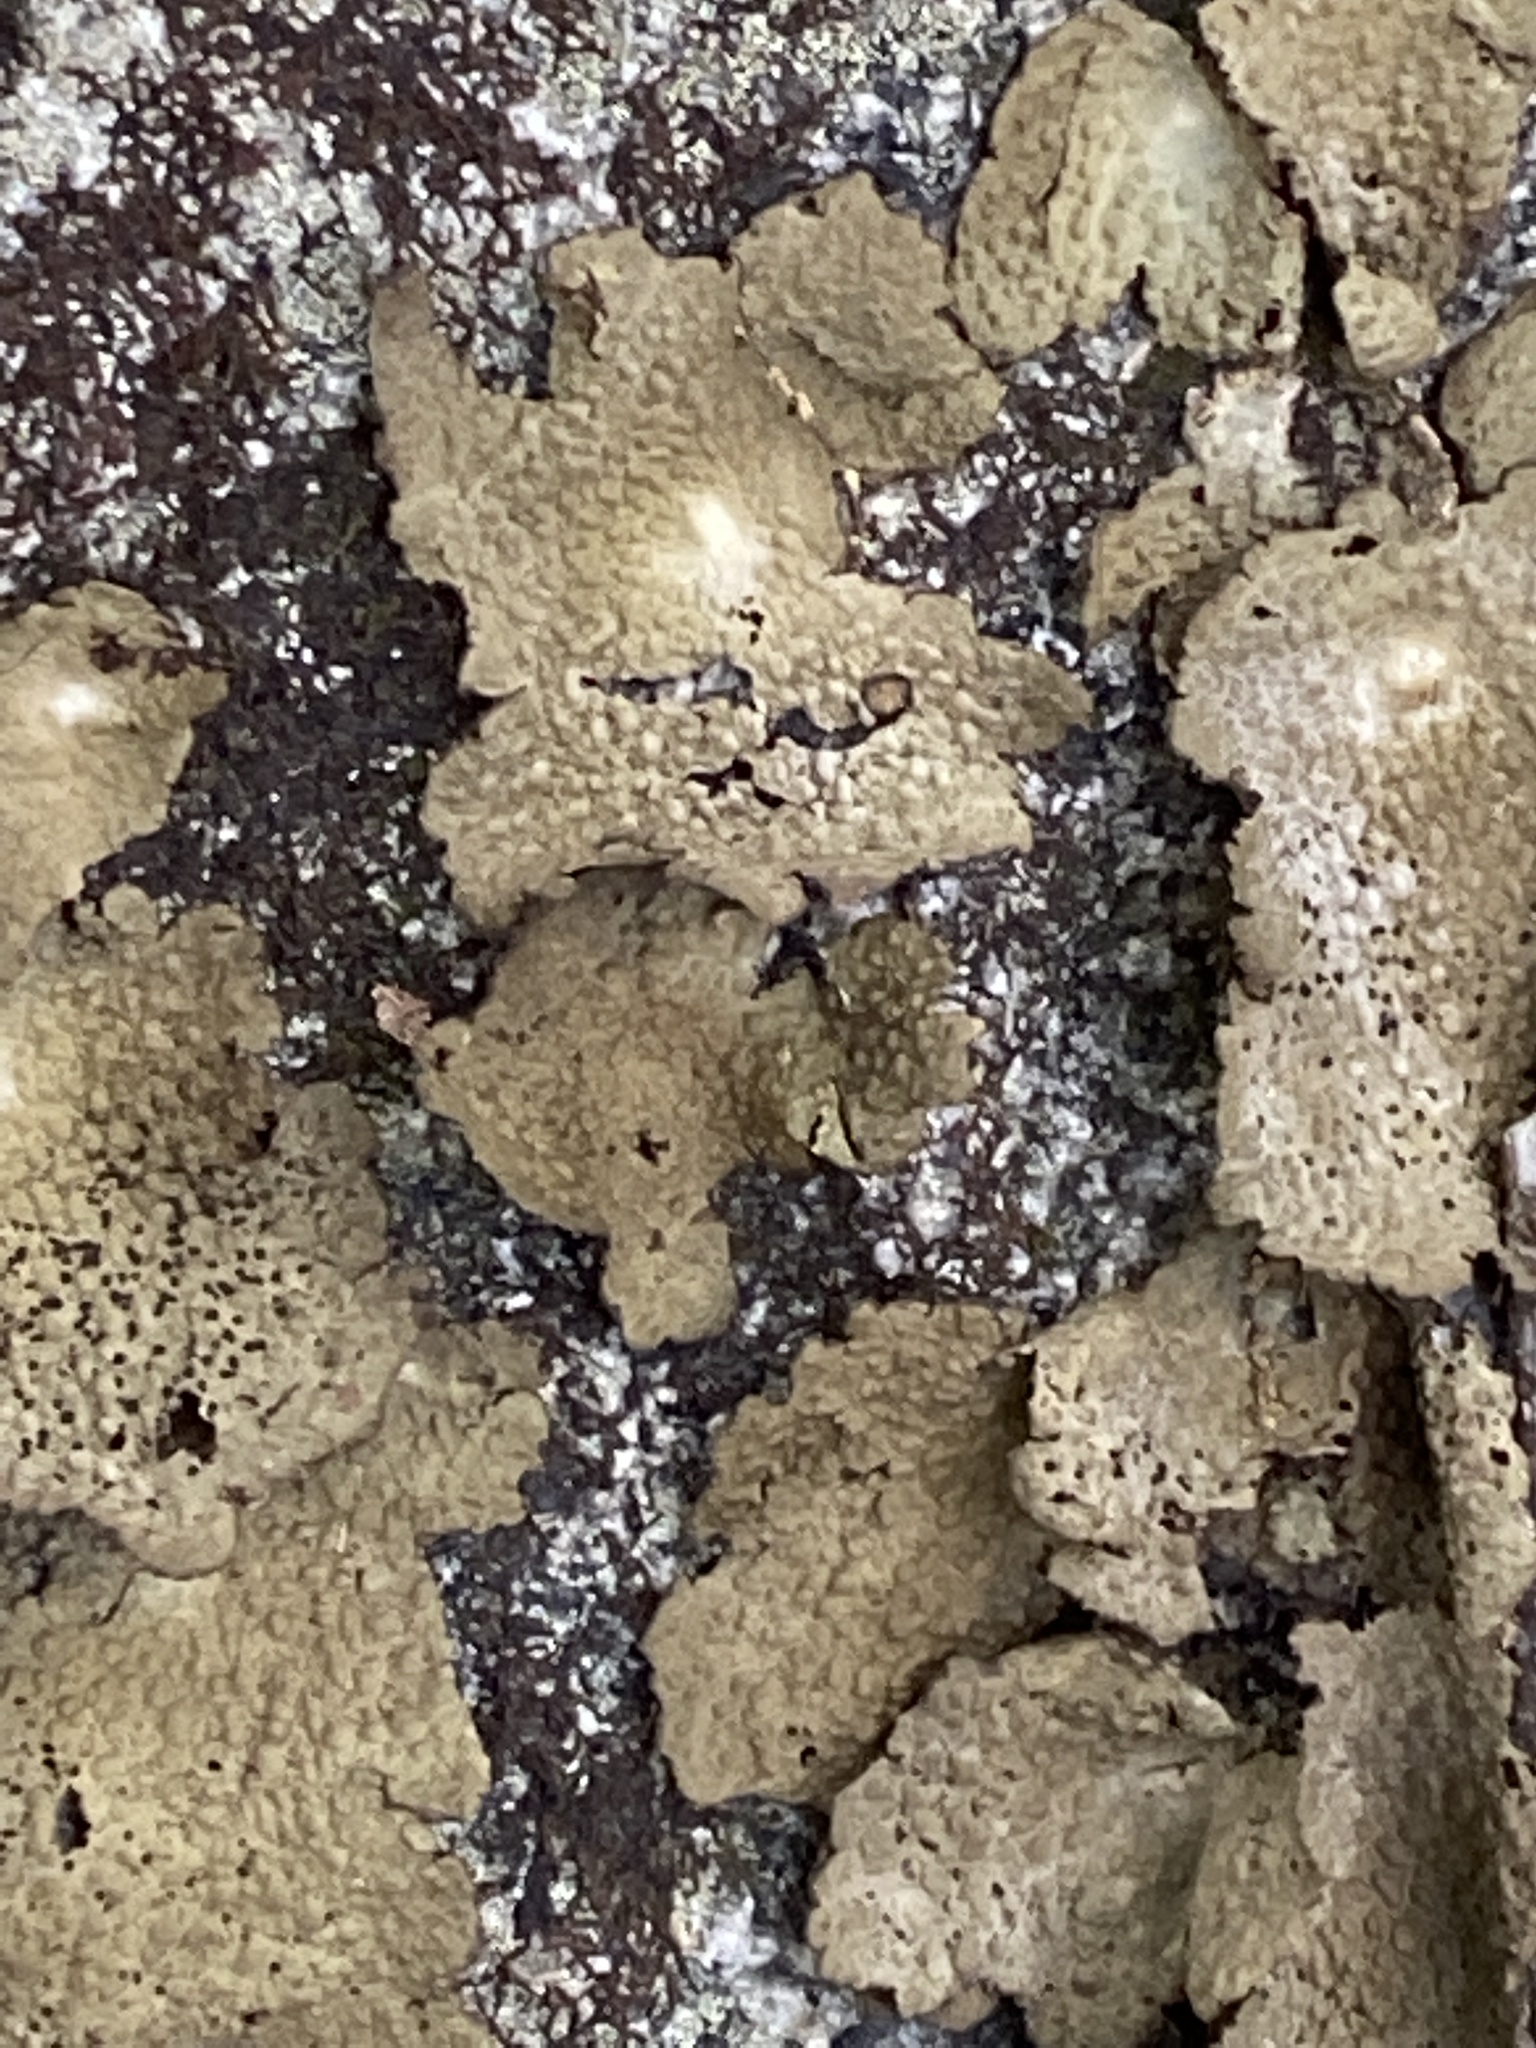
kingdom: Fungi
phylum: Ascomycota
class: Lecanoromycetes
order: Umbilicariales
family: Umbilicariaceae
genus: Lasallia
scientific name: Lasallia papulosa
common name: Common toadskin lichen
